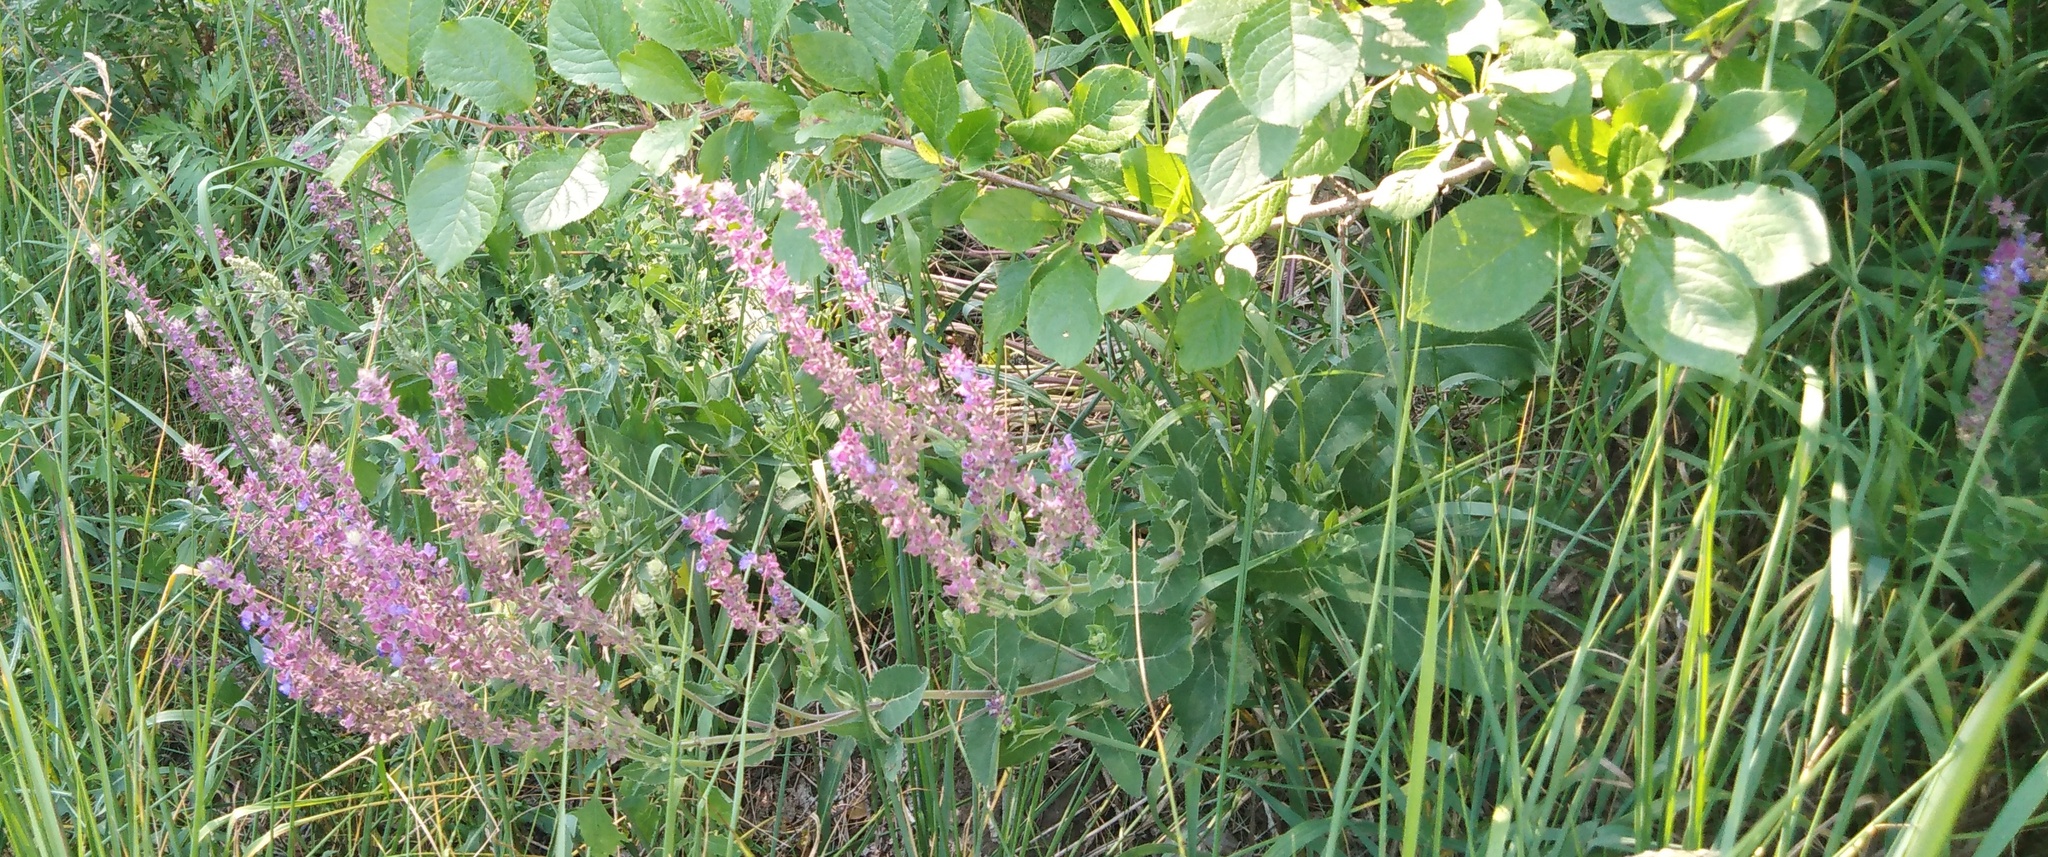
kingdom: Plantae
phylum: Tracheophyta
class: Magnoliopsida
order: Lamiales
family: Lamiaceae
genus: Salvia
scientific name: Salvia nemorosa
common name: Balkan clary
